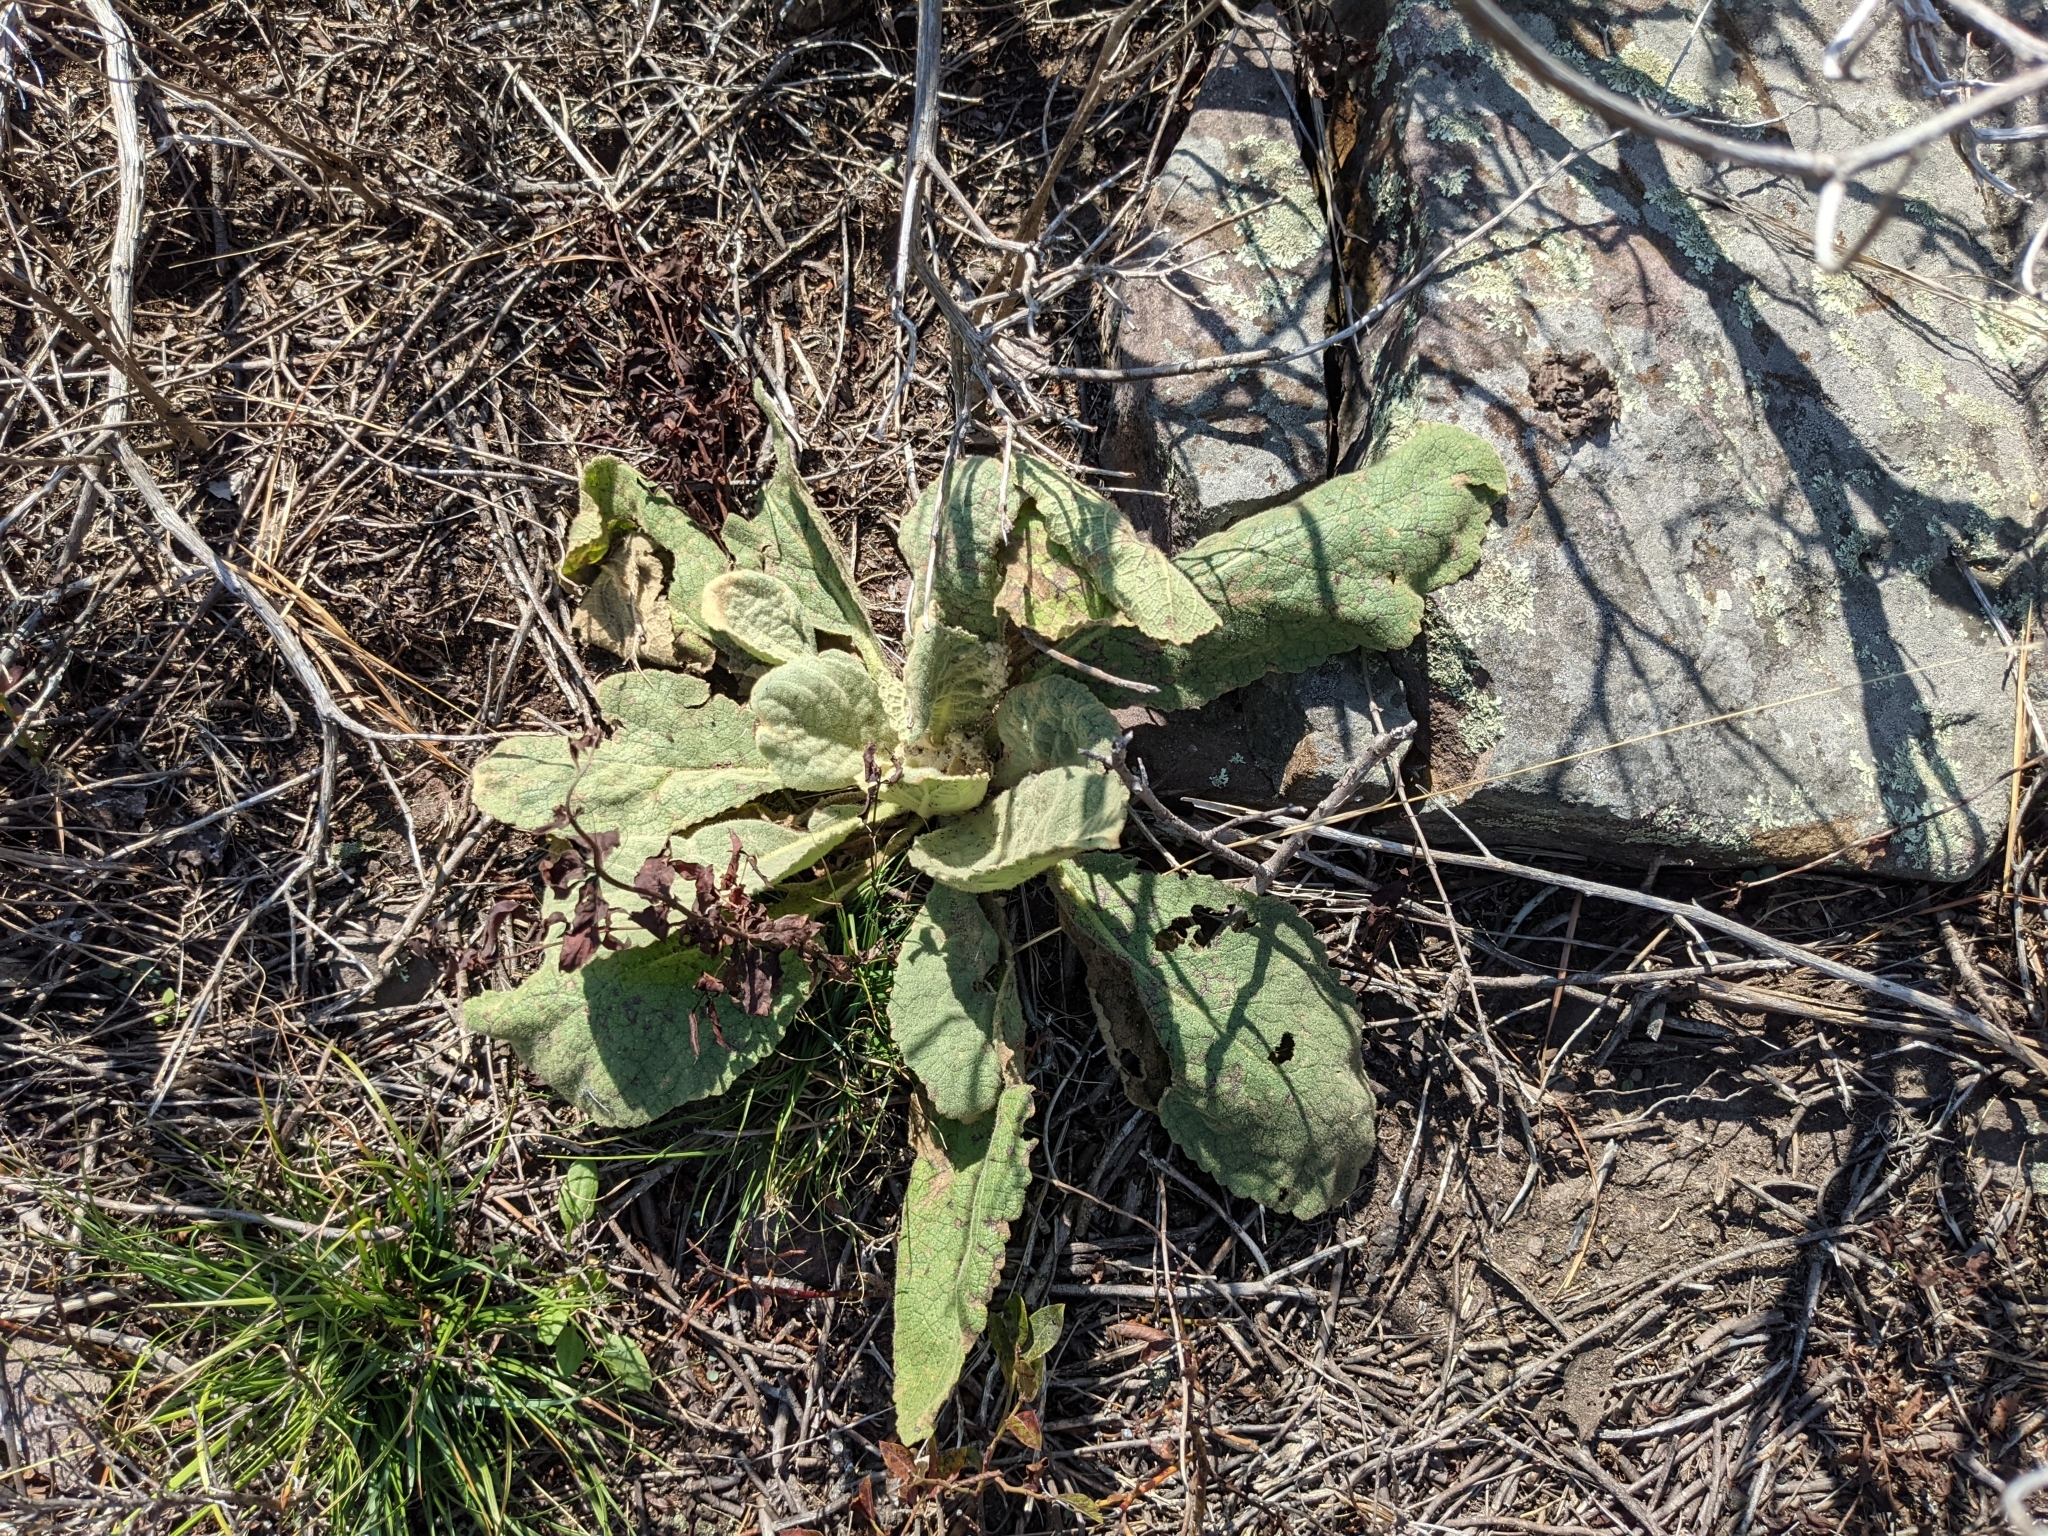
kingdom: Plantae
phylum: Tracheophyta
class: Magnoliopsida
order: Lamiales
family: Scrophulariaceae
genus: Verbascum
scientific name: Verbascum thapsus
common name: Common mullein
